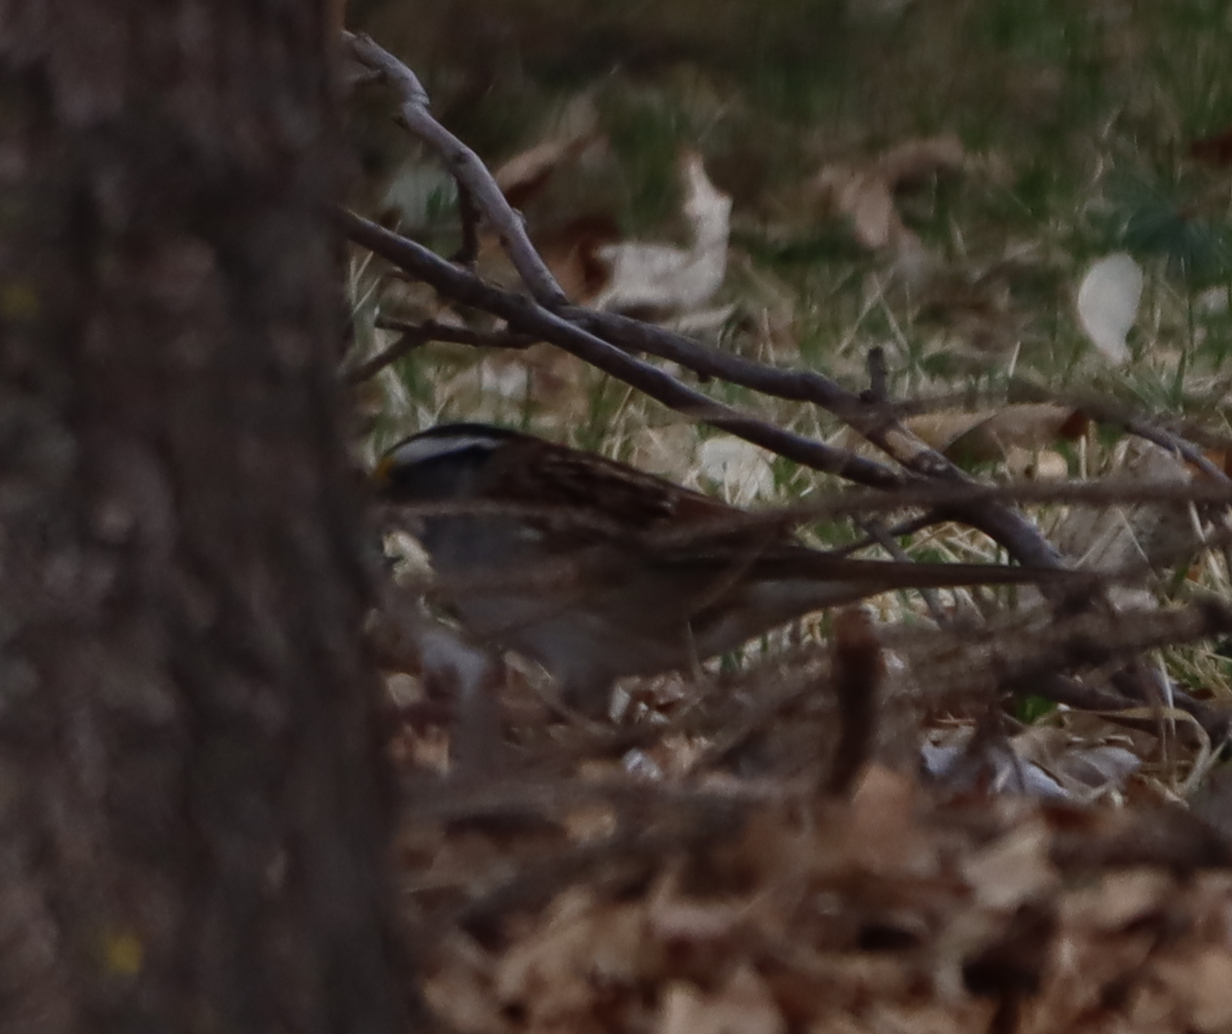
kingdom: Animalia
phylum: Chordata
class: Aves
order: Passeriformes
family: Passerellidae
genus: Zonotrichia
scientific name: Zonotrichia albicollis
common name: White-throated sparrow
